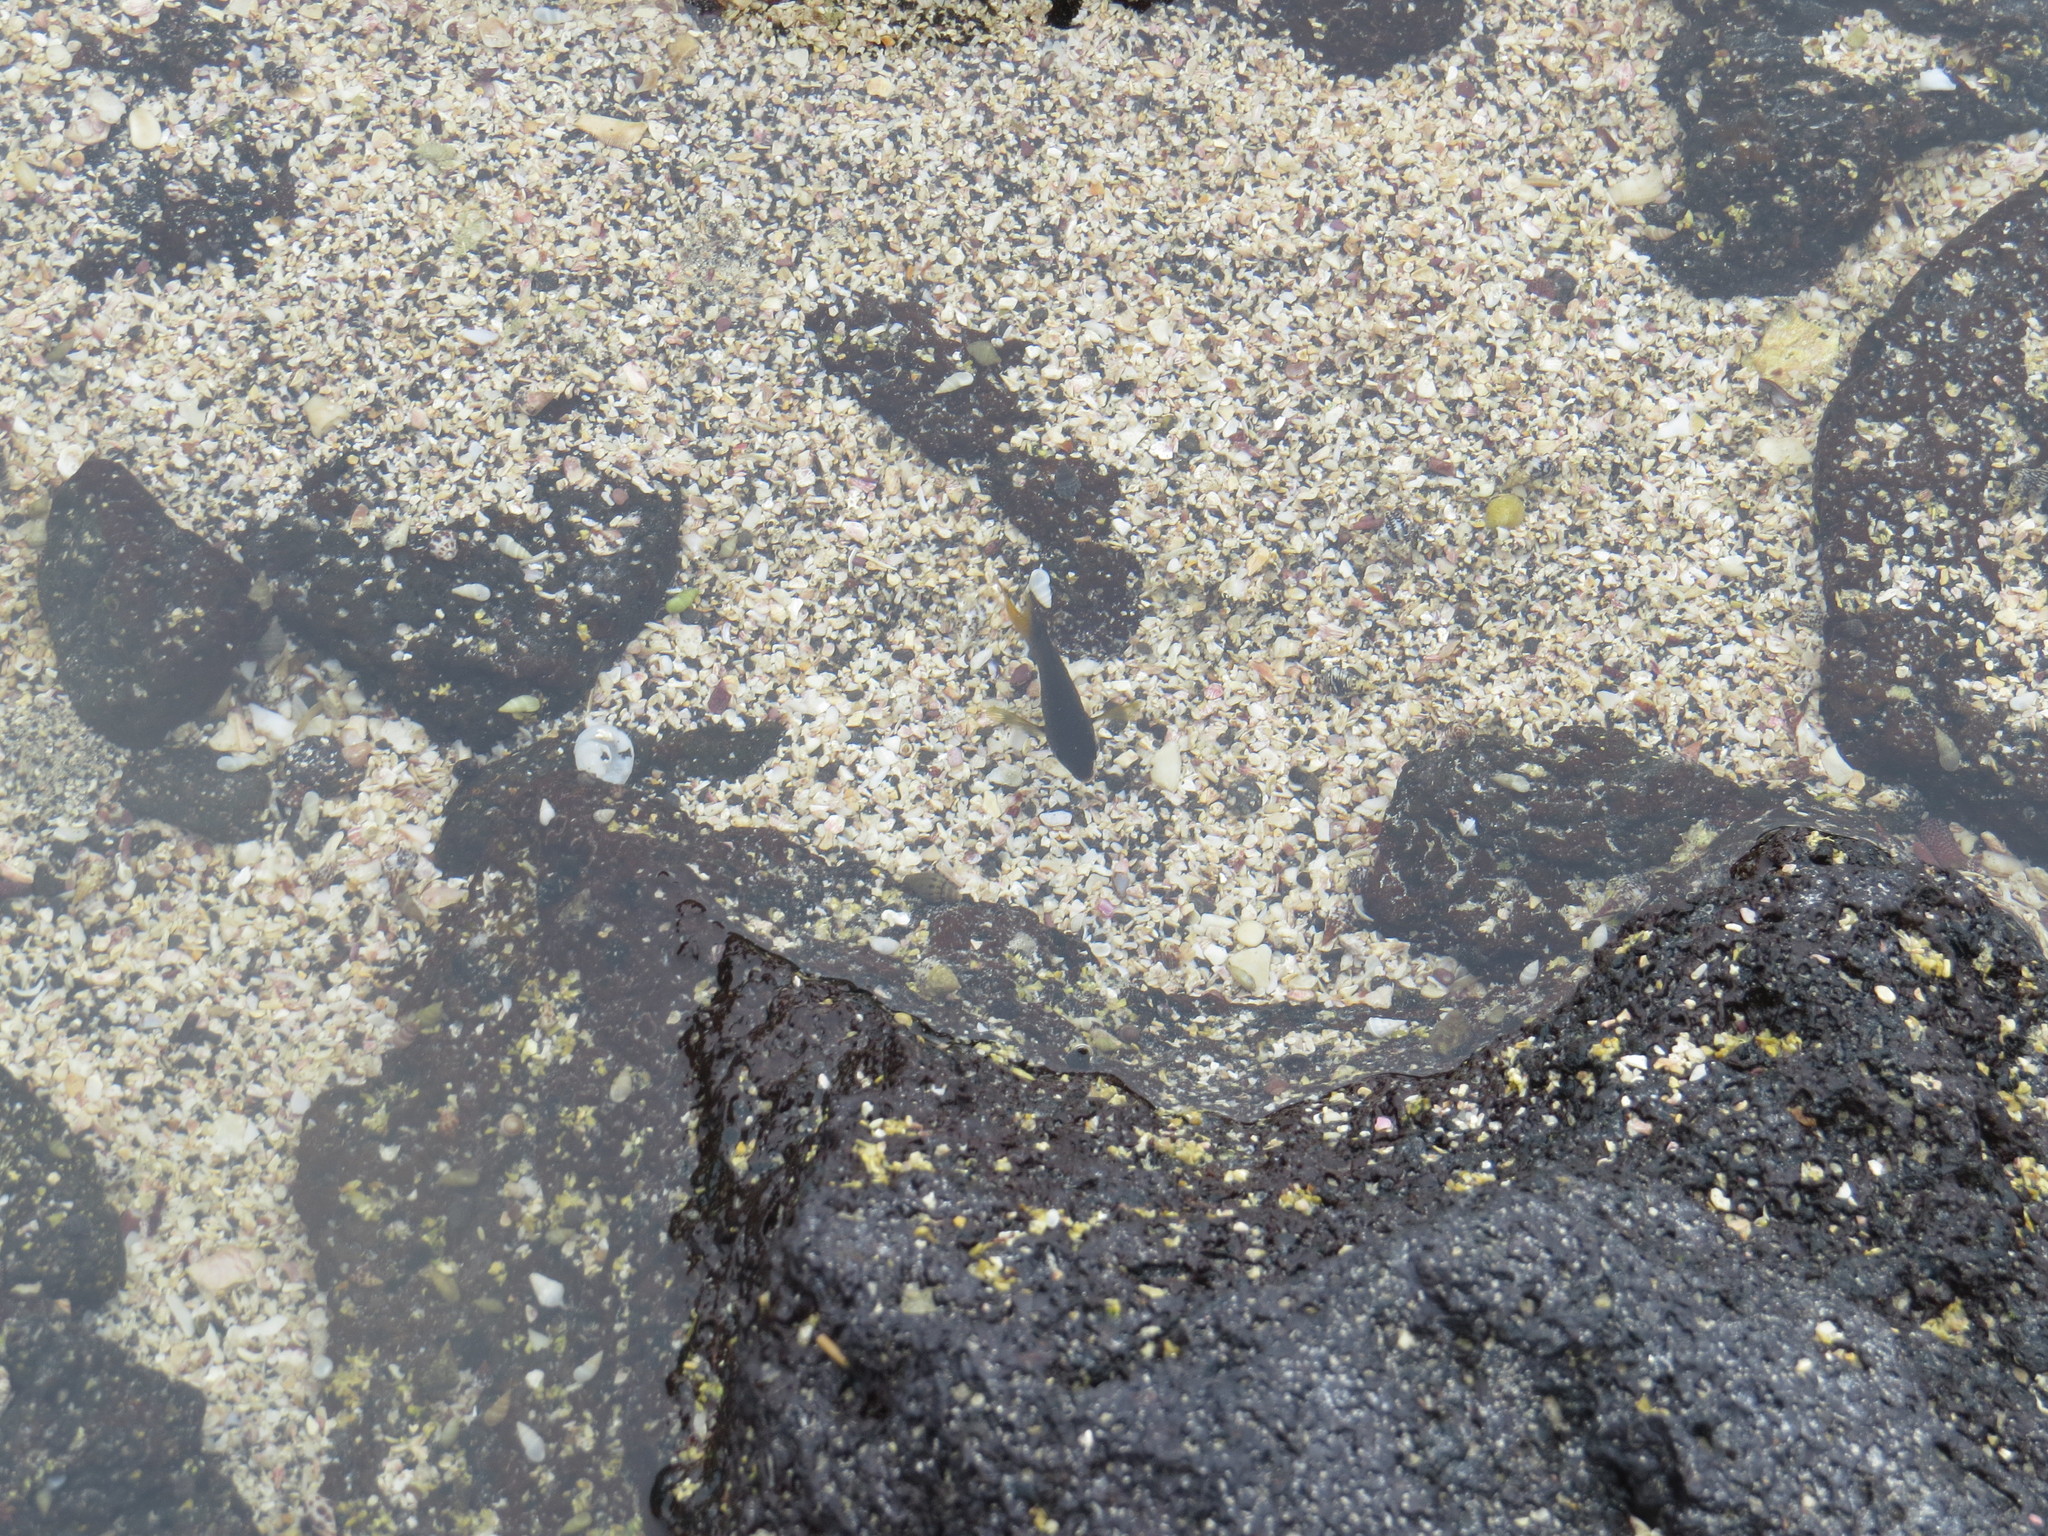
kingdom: Animalia
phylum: Chordata
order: Perciformes
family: Pomacentridae
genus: Stegastes
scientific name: Stegastes arcifrons
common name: Galapagos gregory
